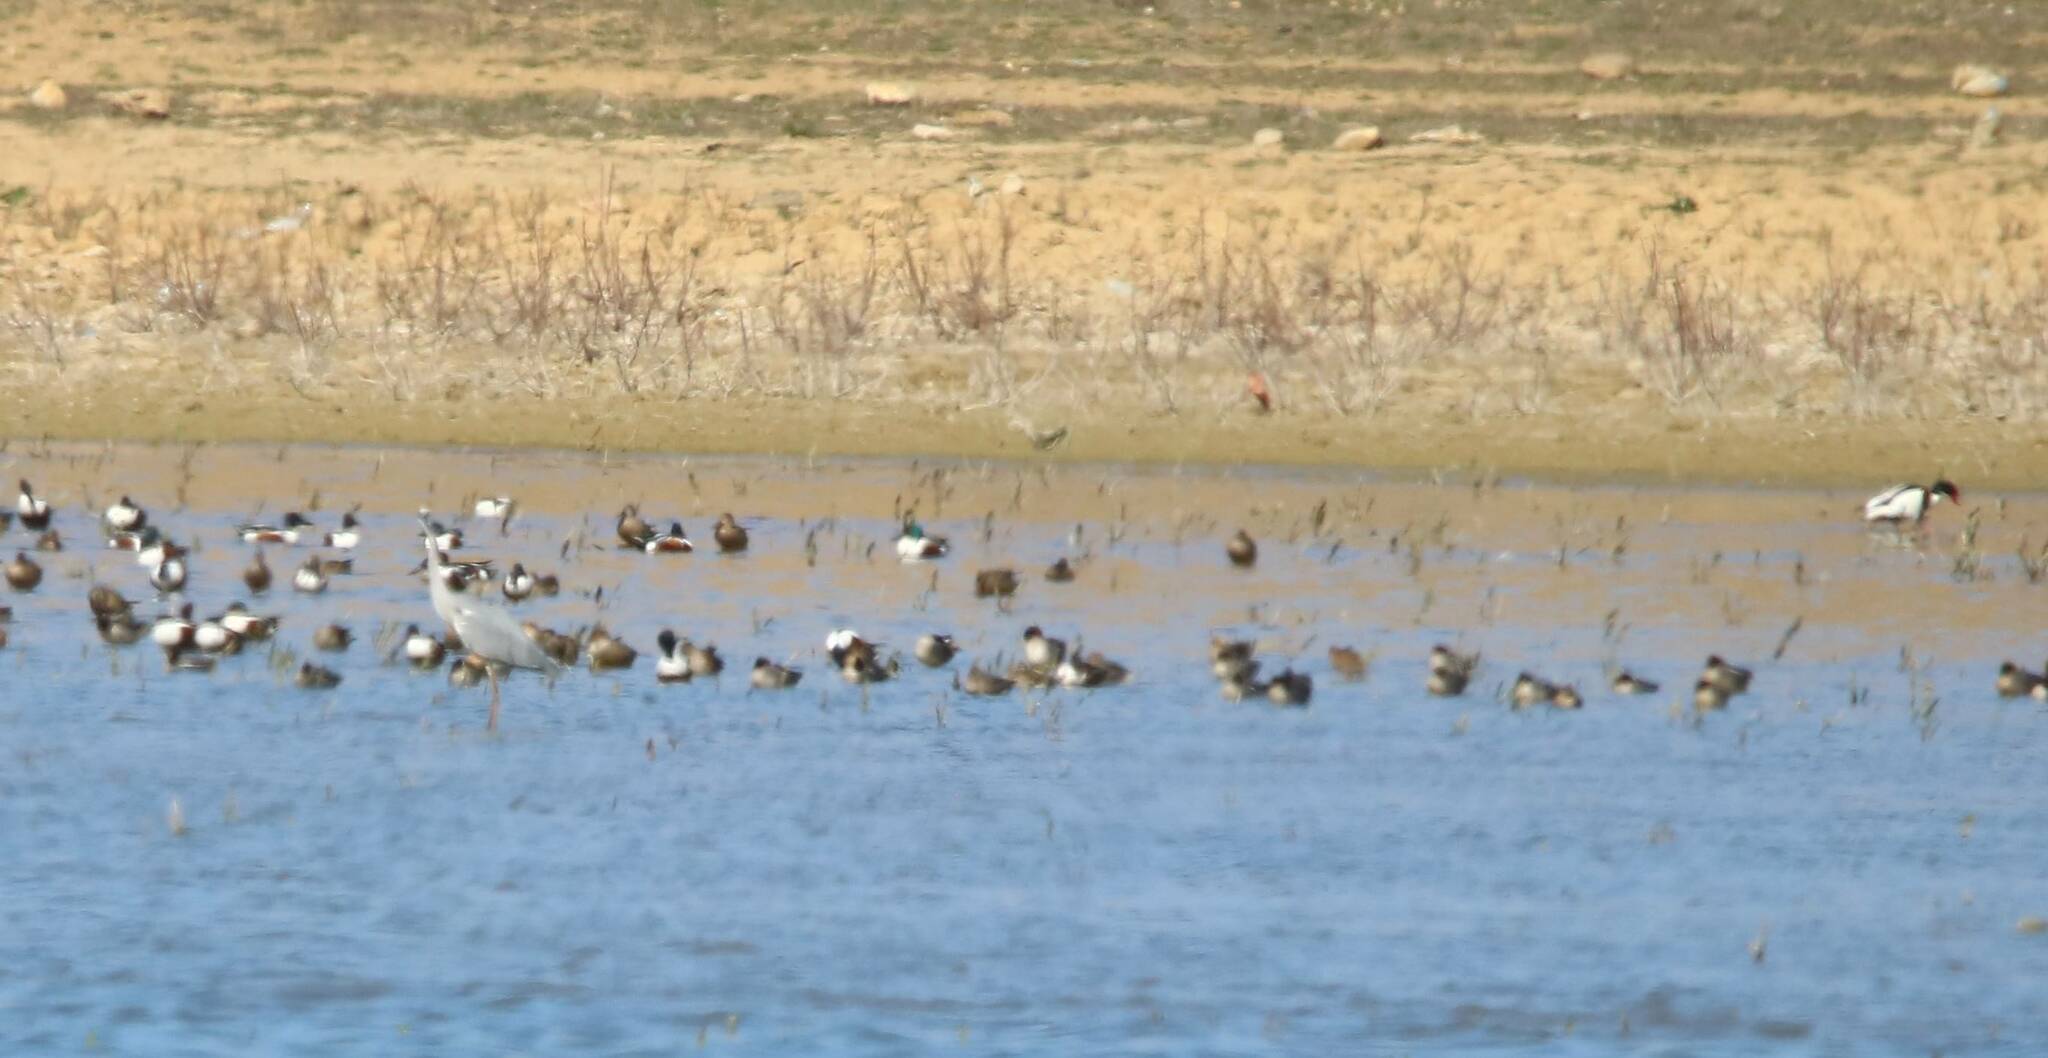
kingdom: Animalia
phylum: Chordata
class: Aves
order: Anseriformes
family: Anatidae
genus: Spatula
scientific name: Spatula clypeata
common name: Northern shoveler
